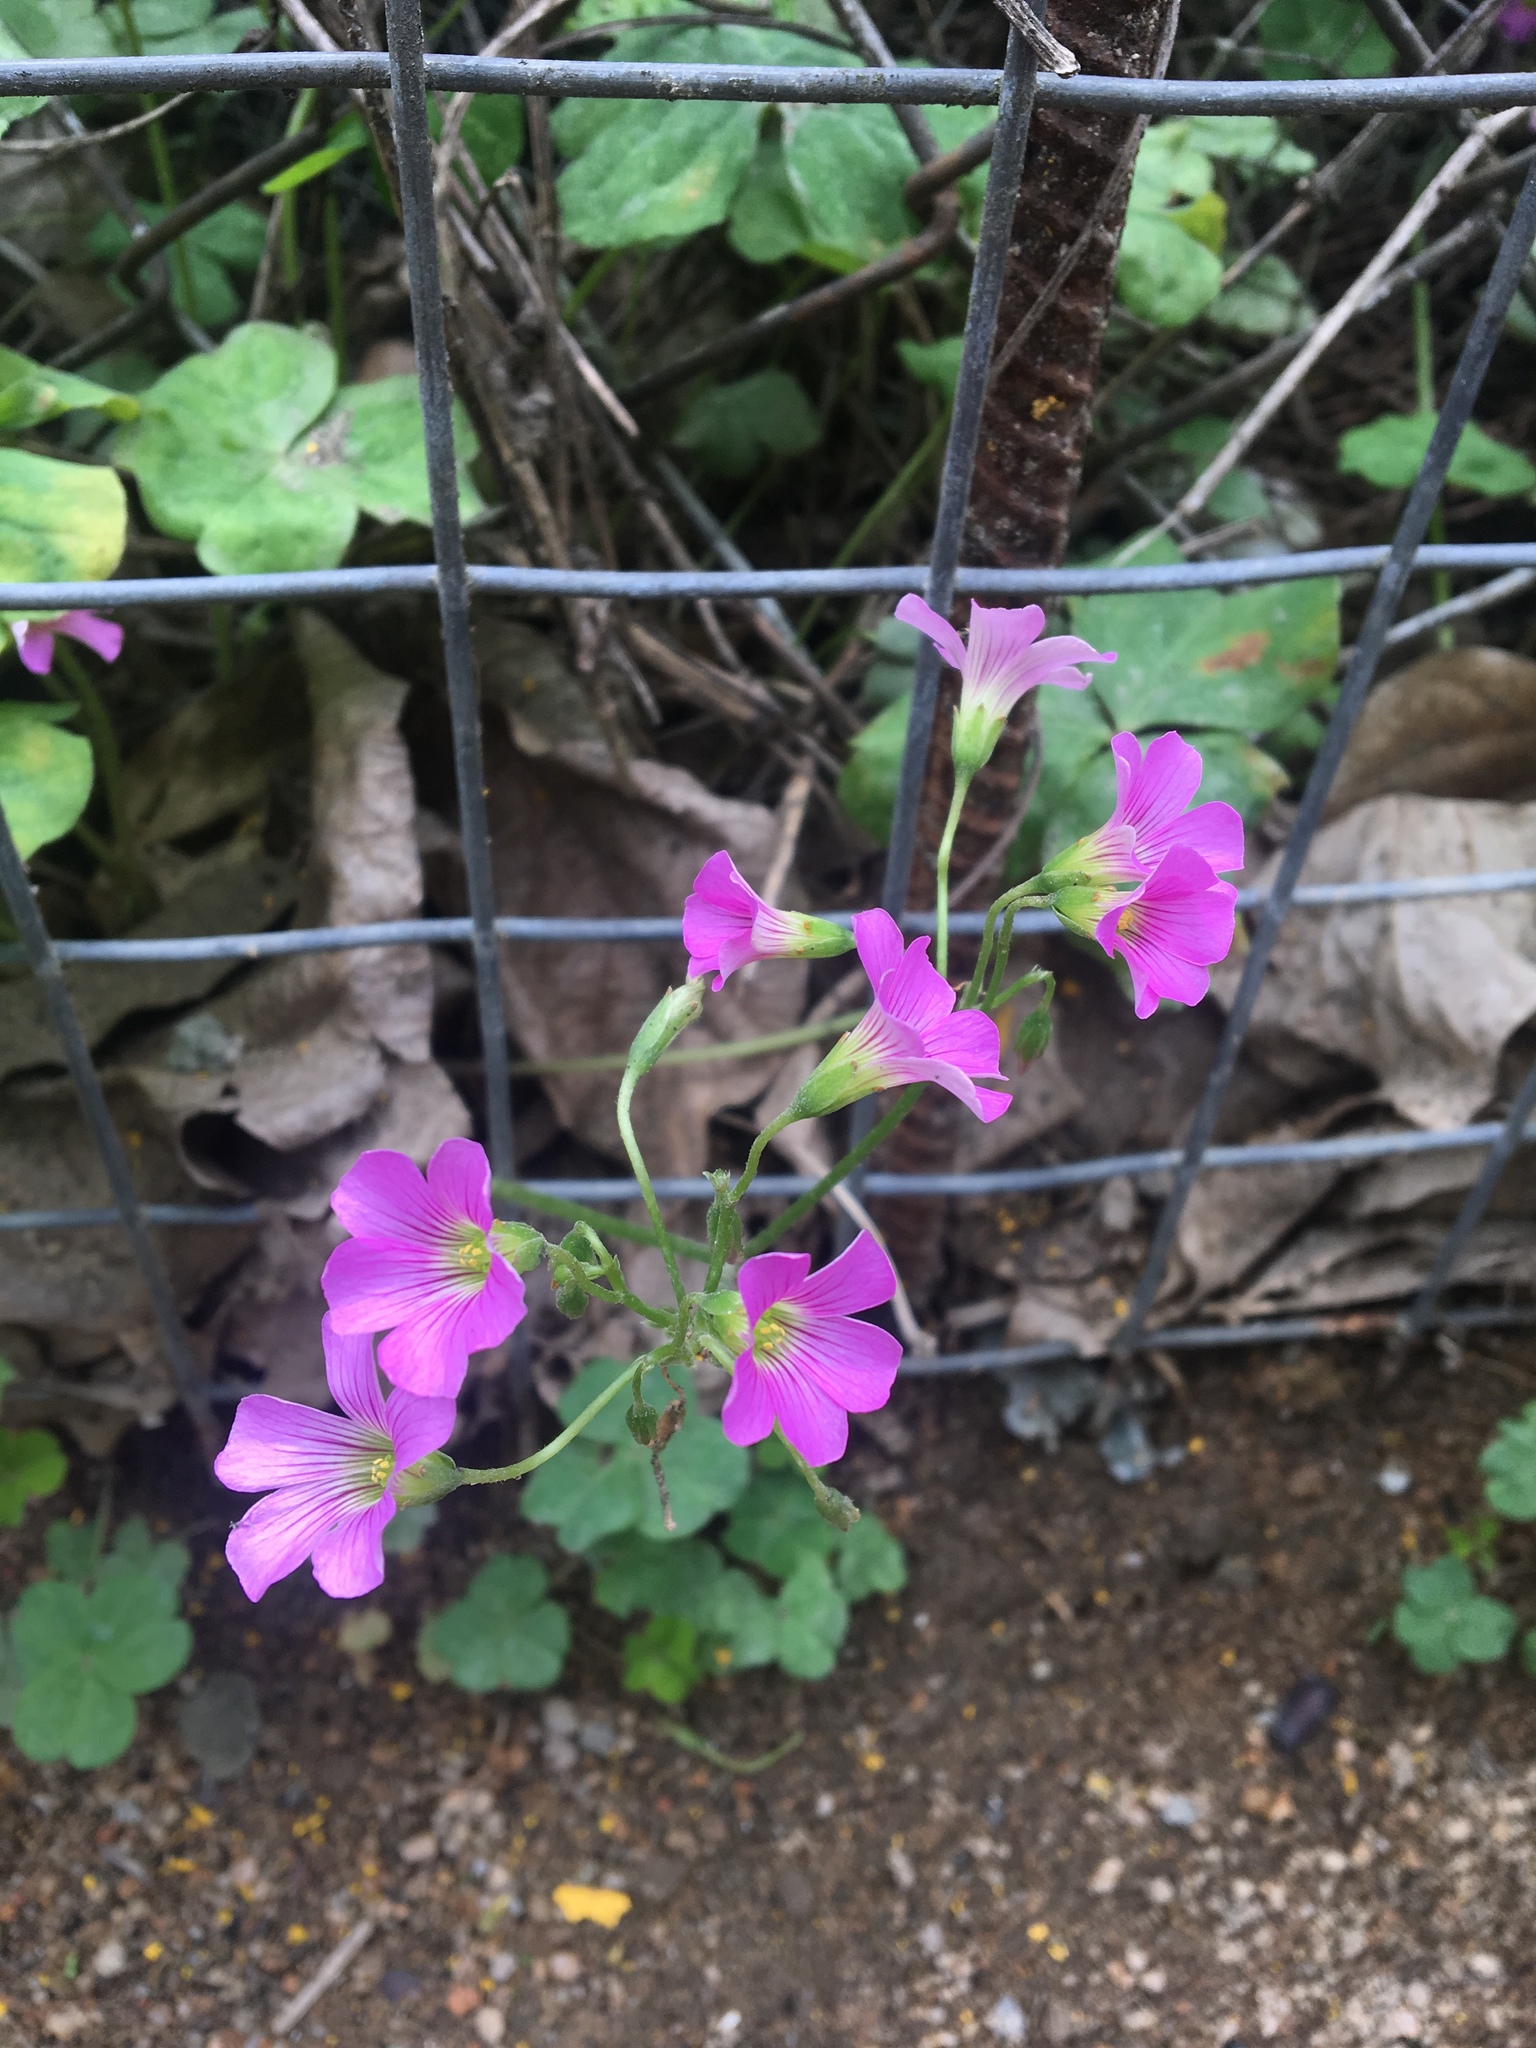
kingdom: Plantae
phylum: Tracheophyta
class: Magnoliopsida
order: Oxalidales
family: Oxalidaceae
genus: Oxalis
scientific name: Oxalis debilis
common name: Large-flowered pink-sorrel
